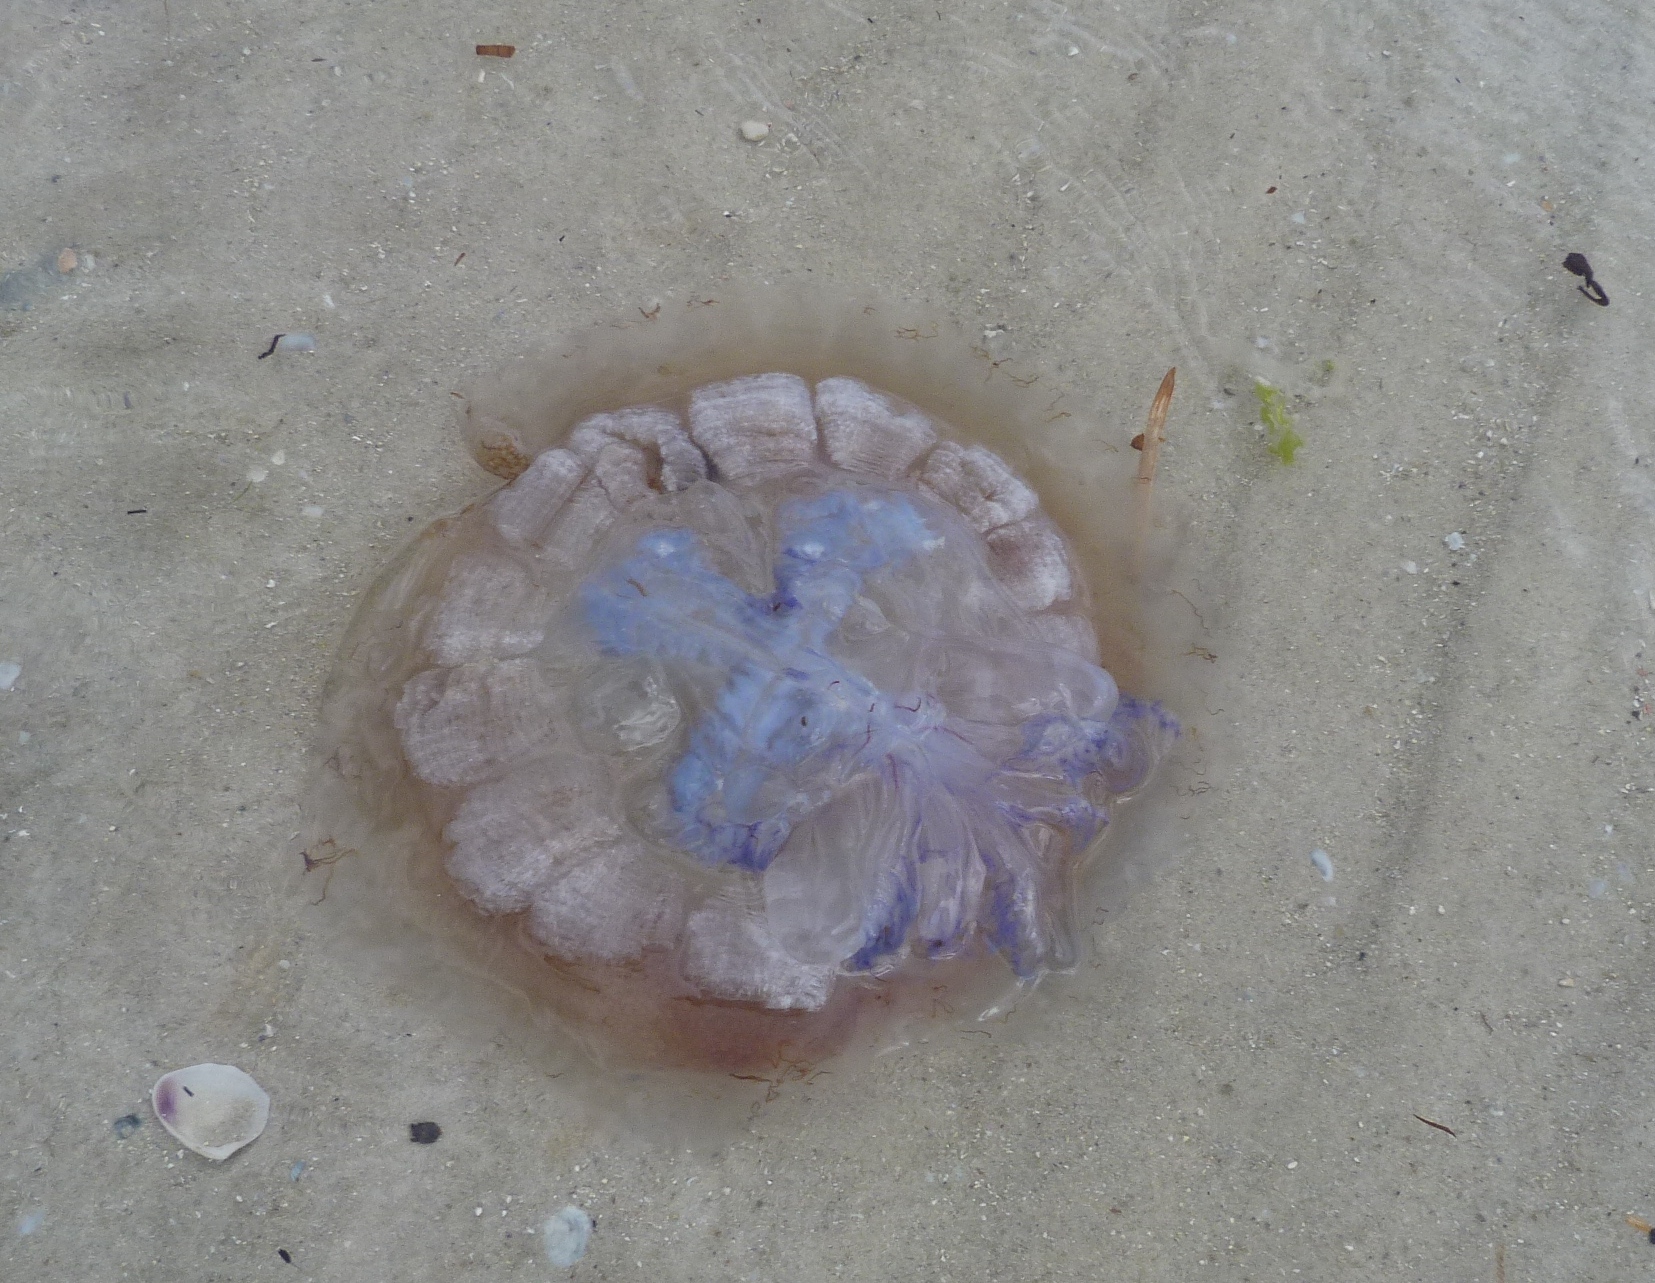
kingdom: Animalia
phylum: Cnidaria
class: Scyphozoa
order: Rhizostomeae
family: Lychnorhizidae
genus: Pseudorhiza
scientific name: Pseudorhiza haeckeli
